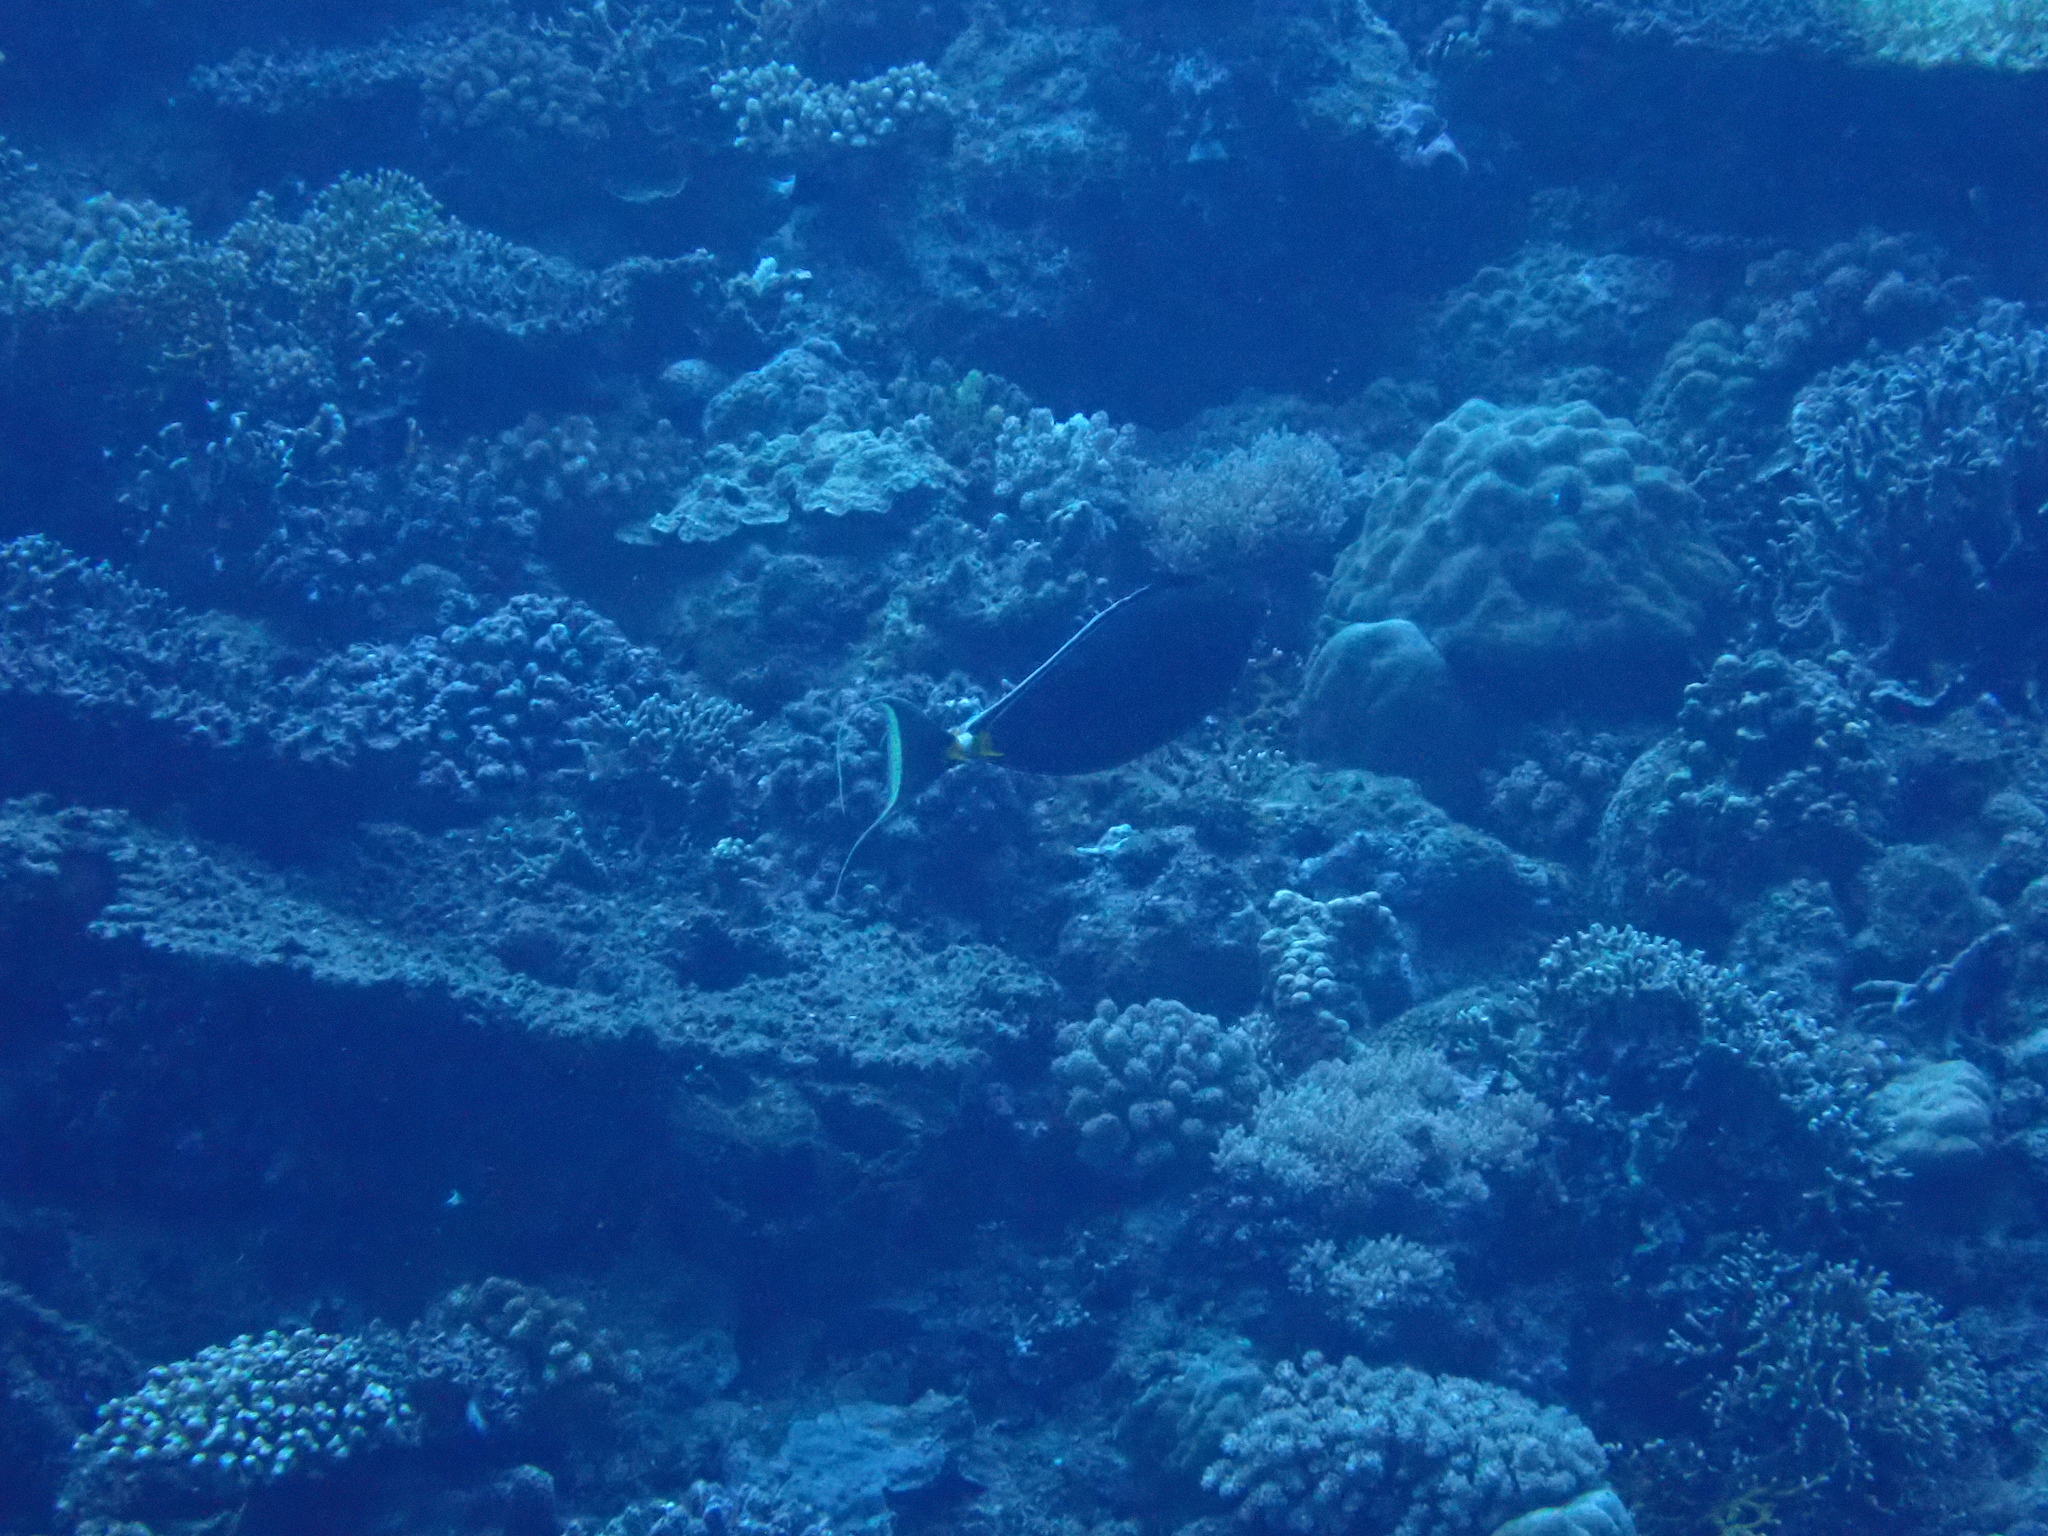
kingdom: Animalia
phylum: Chordata
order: Perciformes
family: Acanthuridae
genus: Naso
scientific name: Naso lituratus
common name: Orangespine unicornfish
